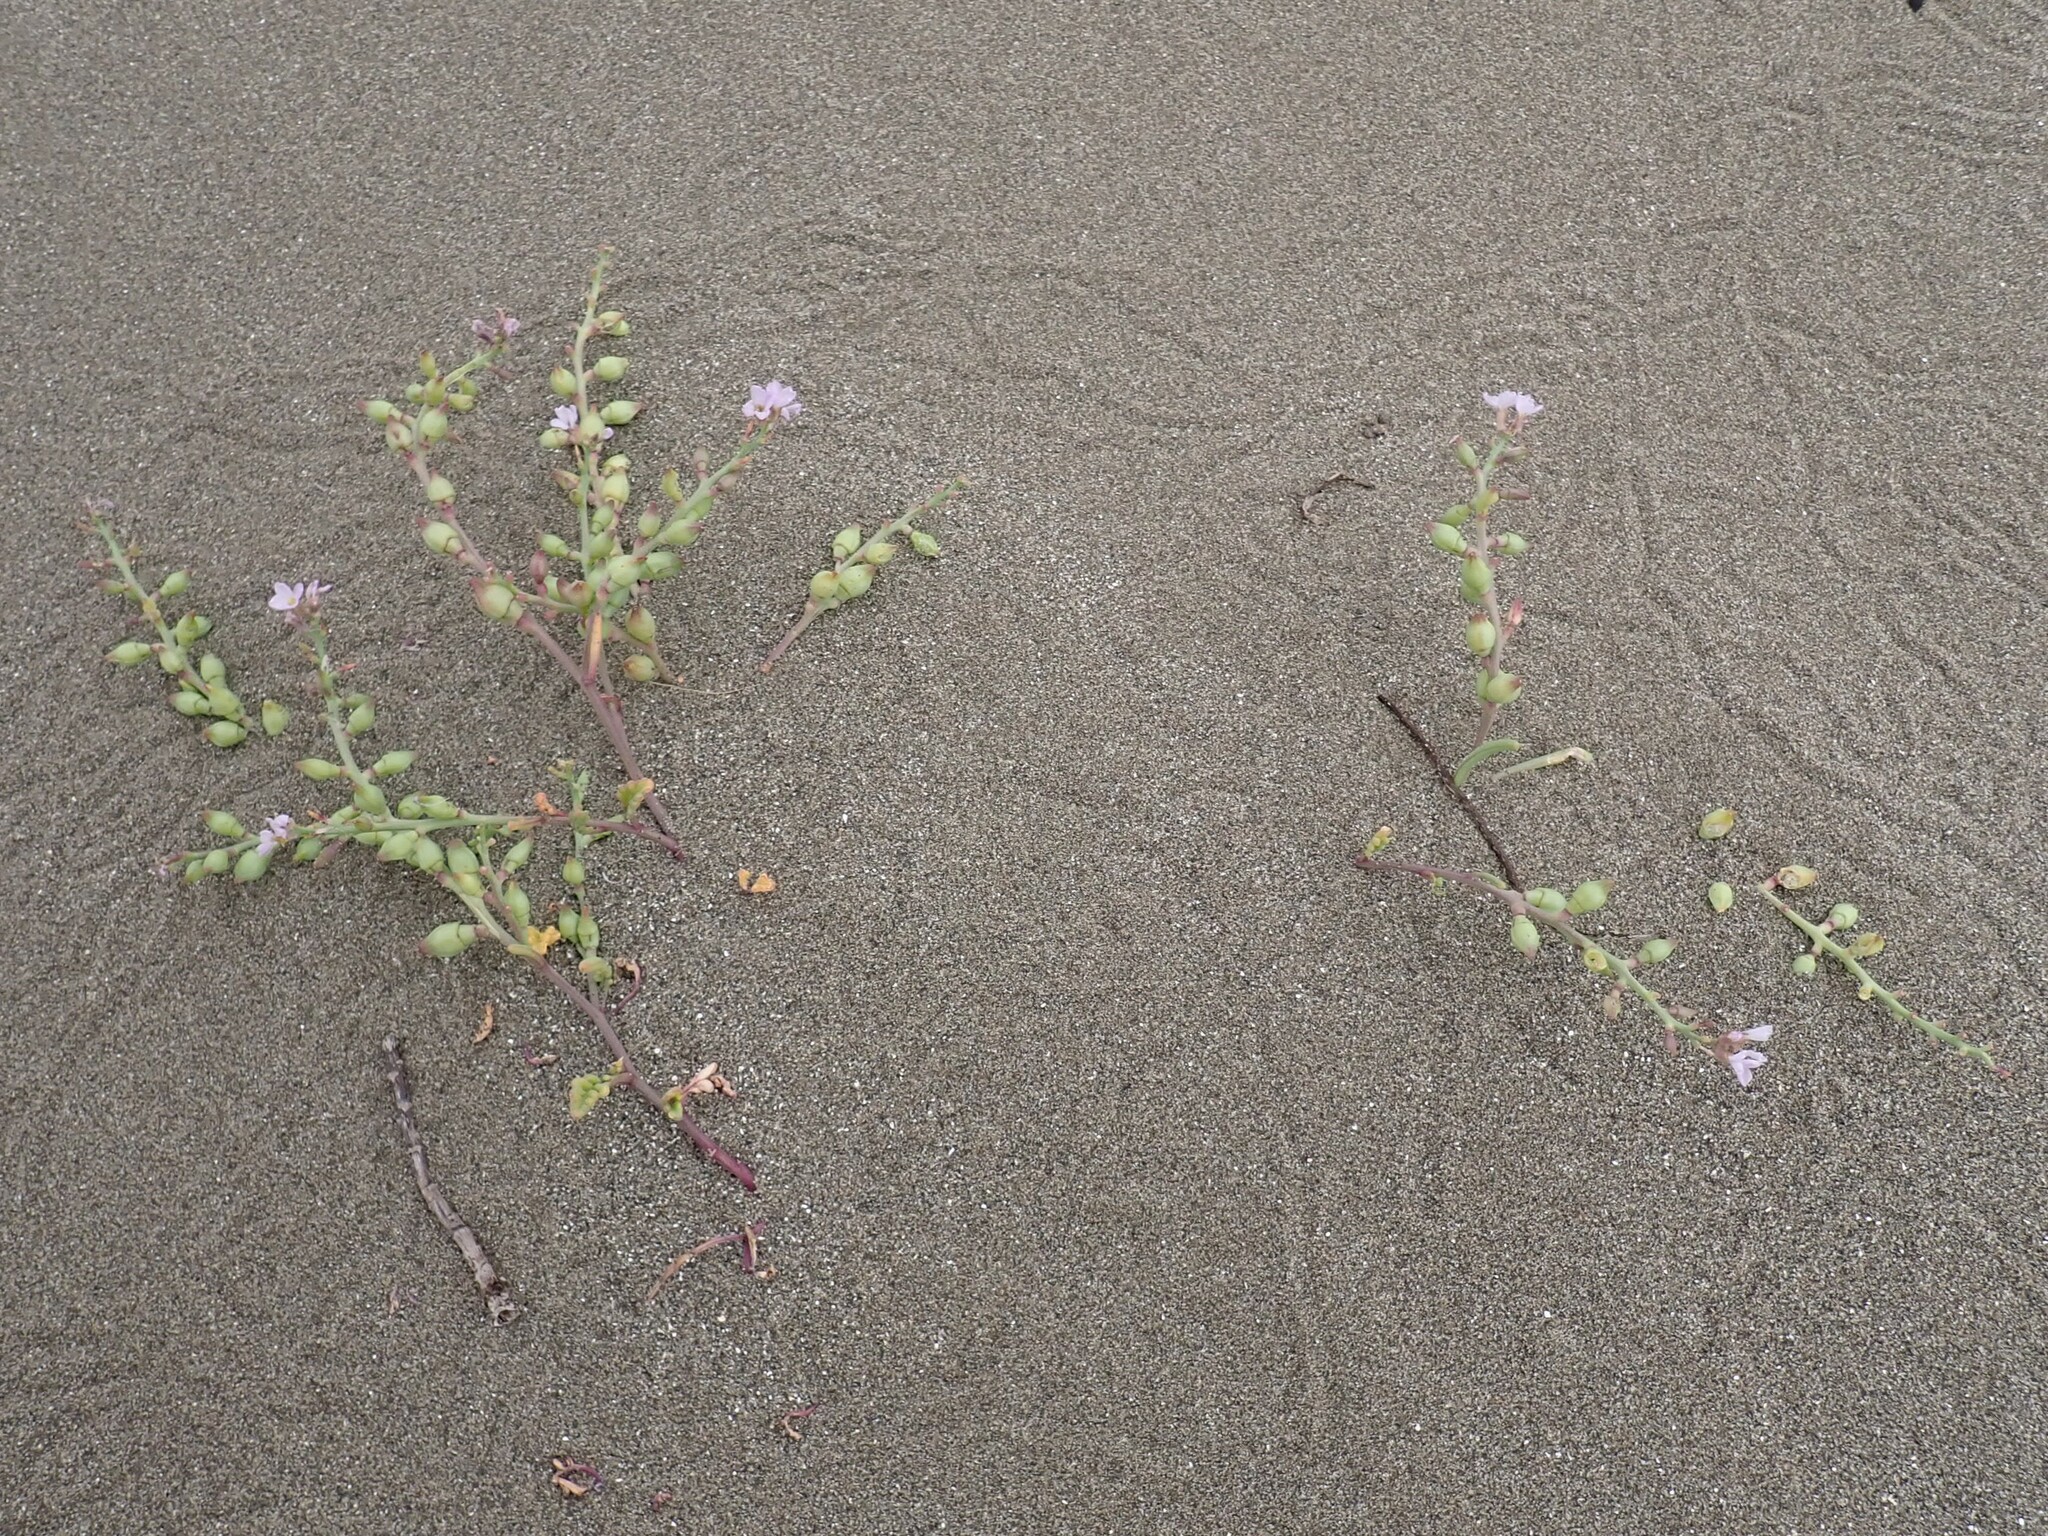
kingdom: Plantae
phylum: Tracheophyta
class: Magnoliopsida
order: Brassicales
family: Brassicaceae
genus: Cakile
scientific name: Cakile maritima
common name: Sea rocket
